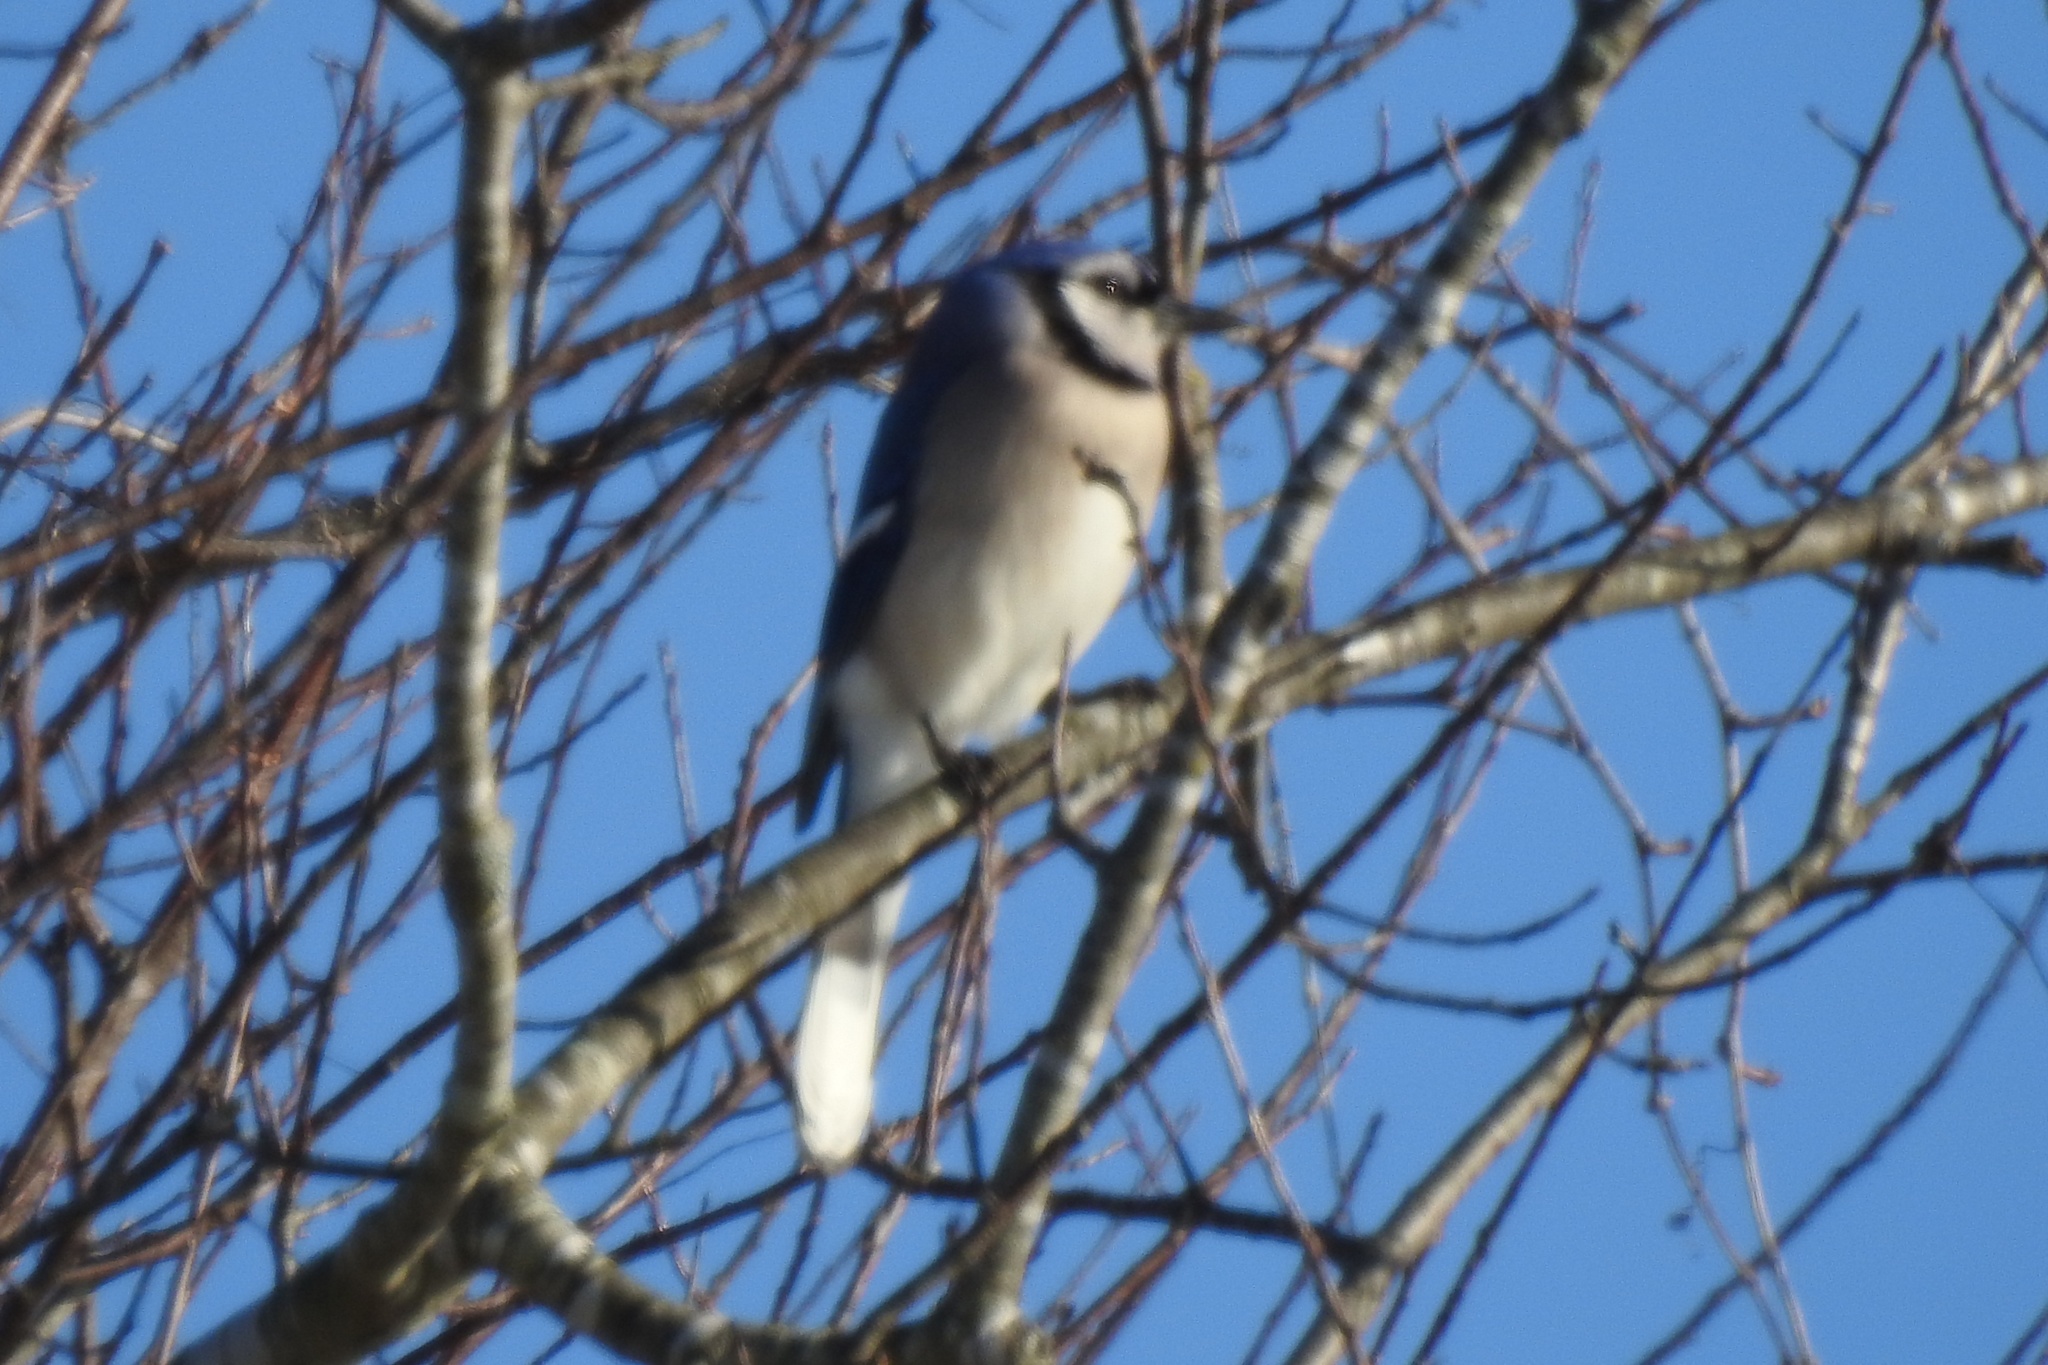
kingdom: Animalia
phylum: Chordata
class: Aves
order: Passeriformes
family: Corvidae
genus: Cyanocitta
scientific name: Cyanocitta cristata
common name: Blue jay
